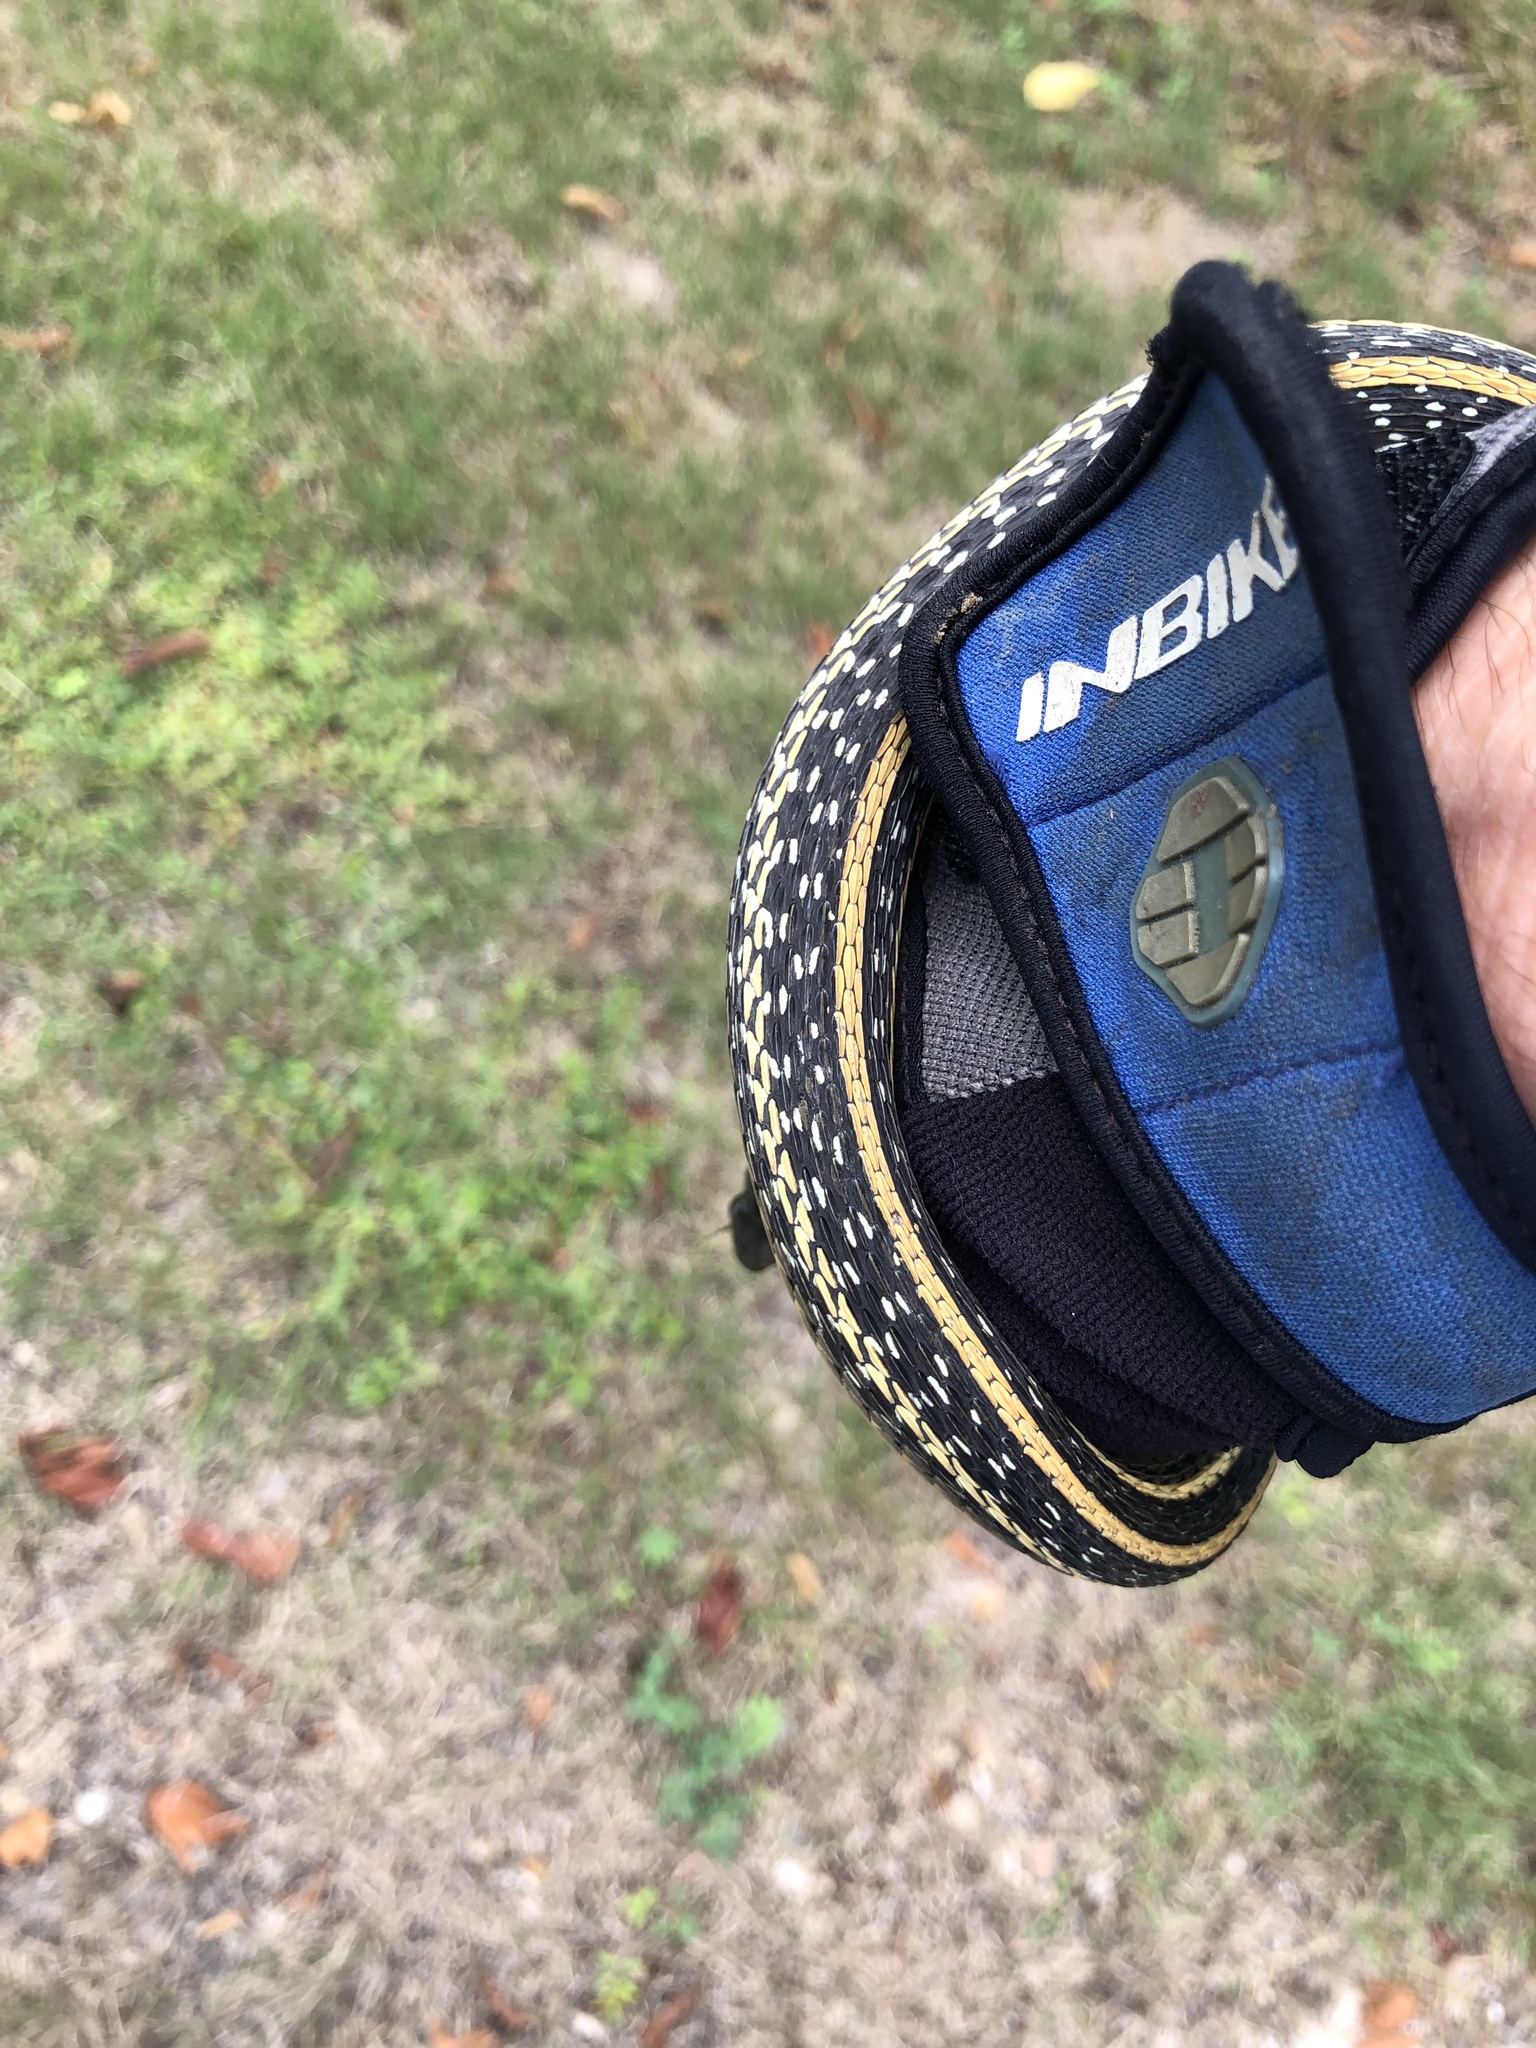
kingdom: Animalia
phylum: Chordata
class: Squamata
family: Colubridae
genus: Thamnophis
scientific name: Thamnophis proximus
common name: Western ribbon snake
